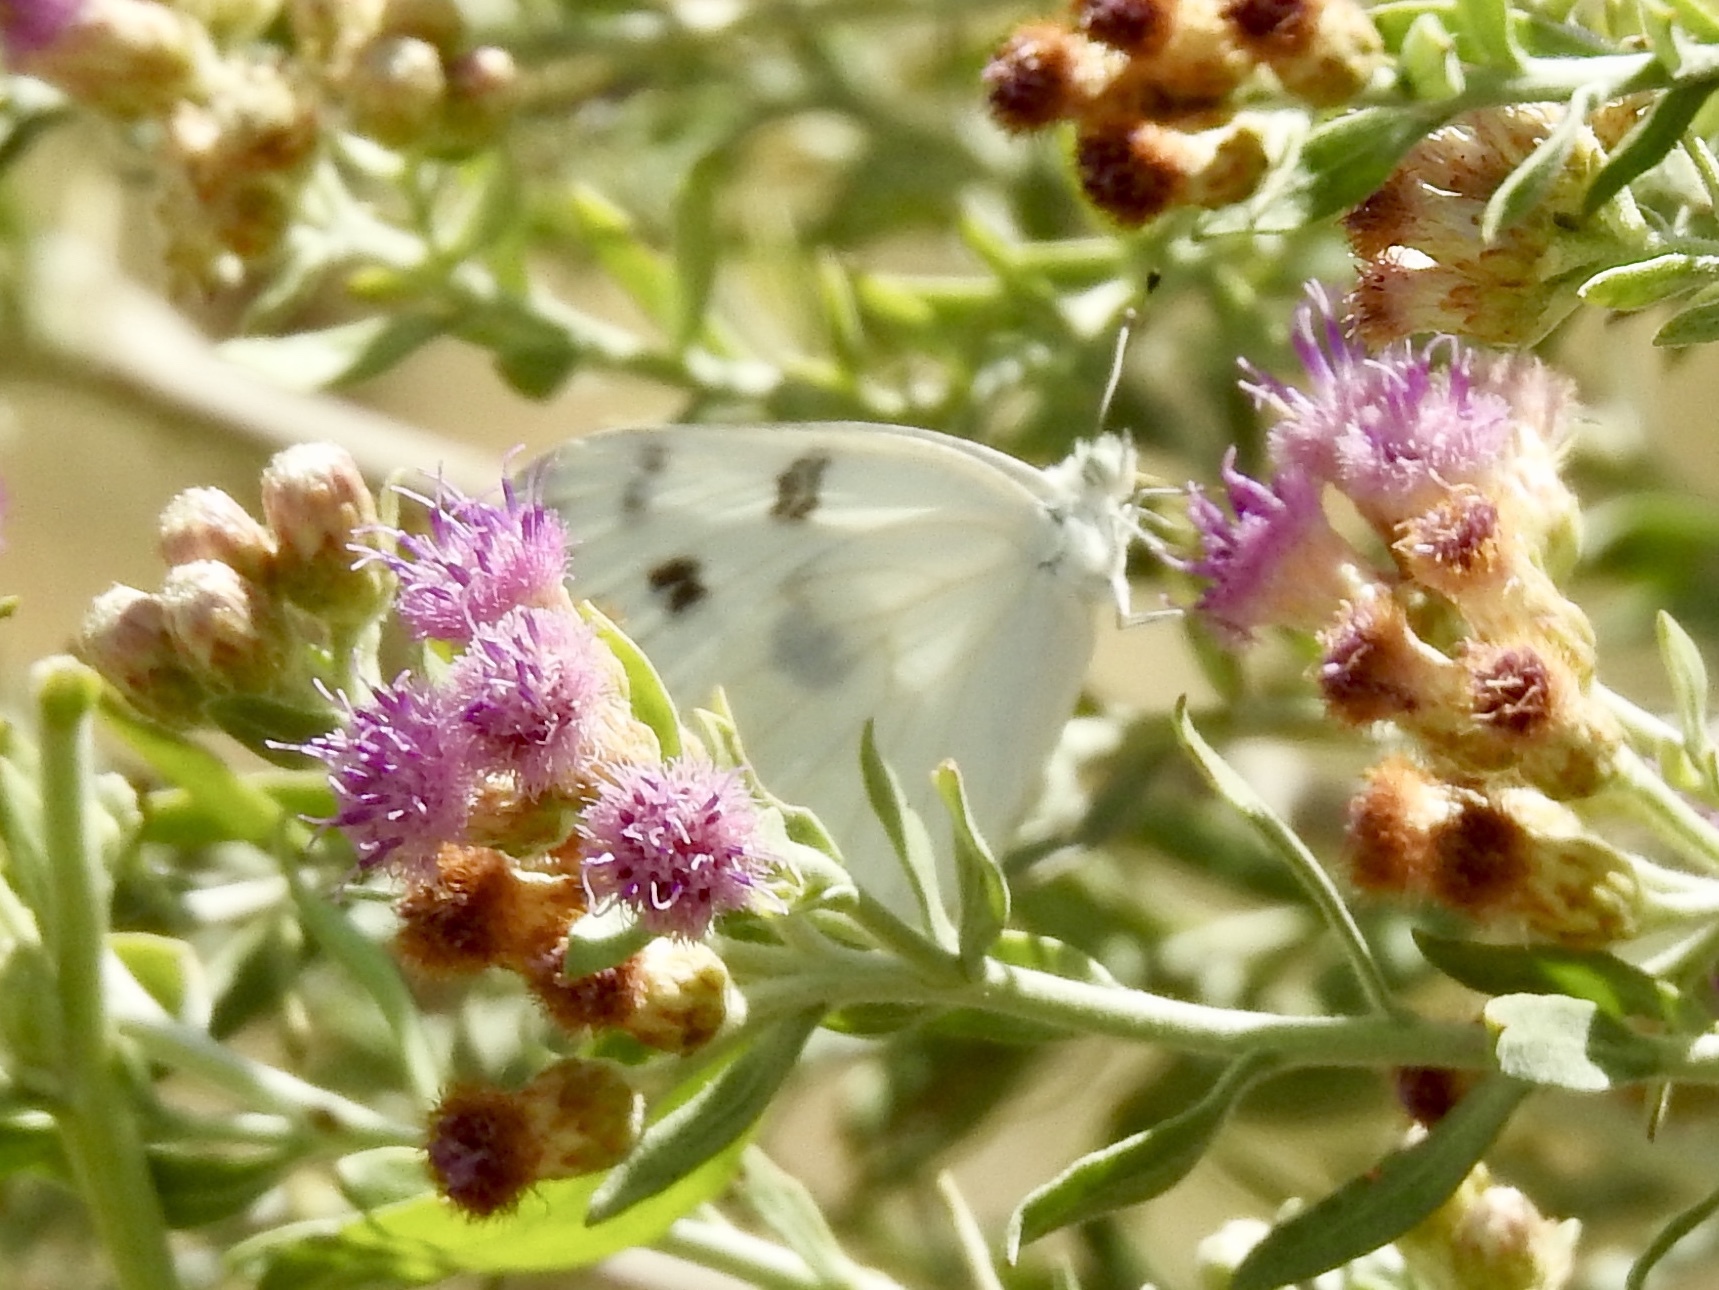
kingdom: Animalia
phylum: Arthropoda
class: Insecta
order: Lepidoptera
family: Pieridae
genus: Pontia
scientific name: Pontia protodice
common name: Checkered white
